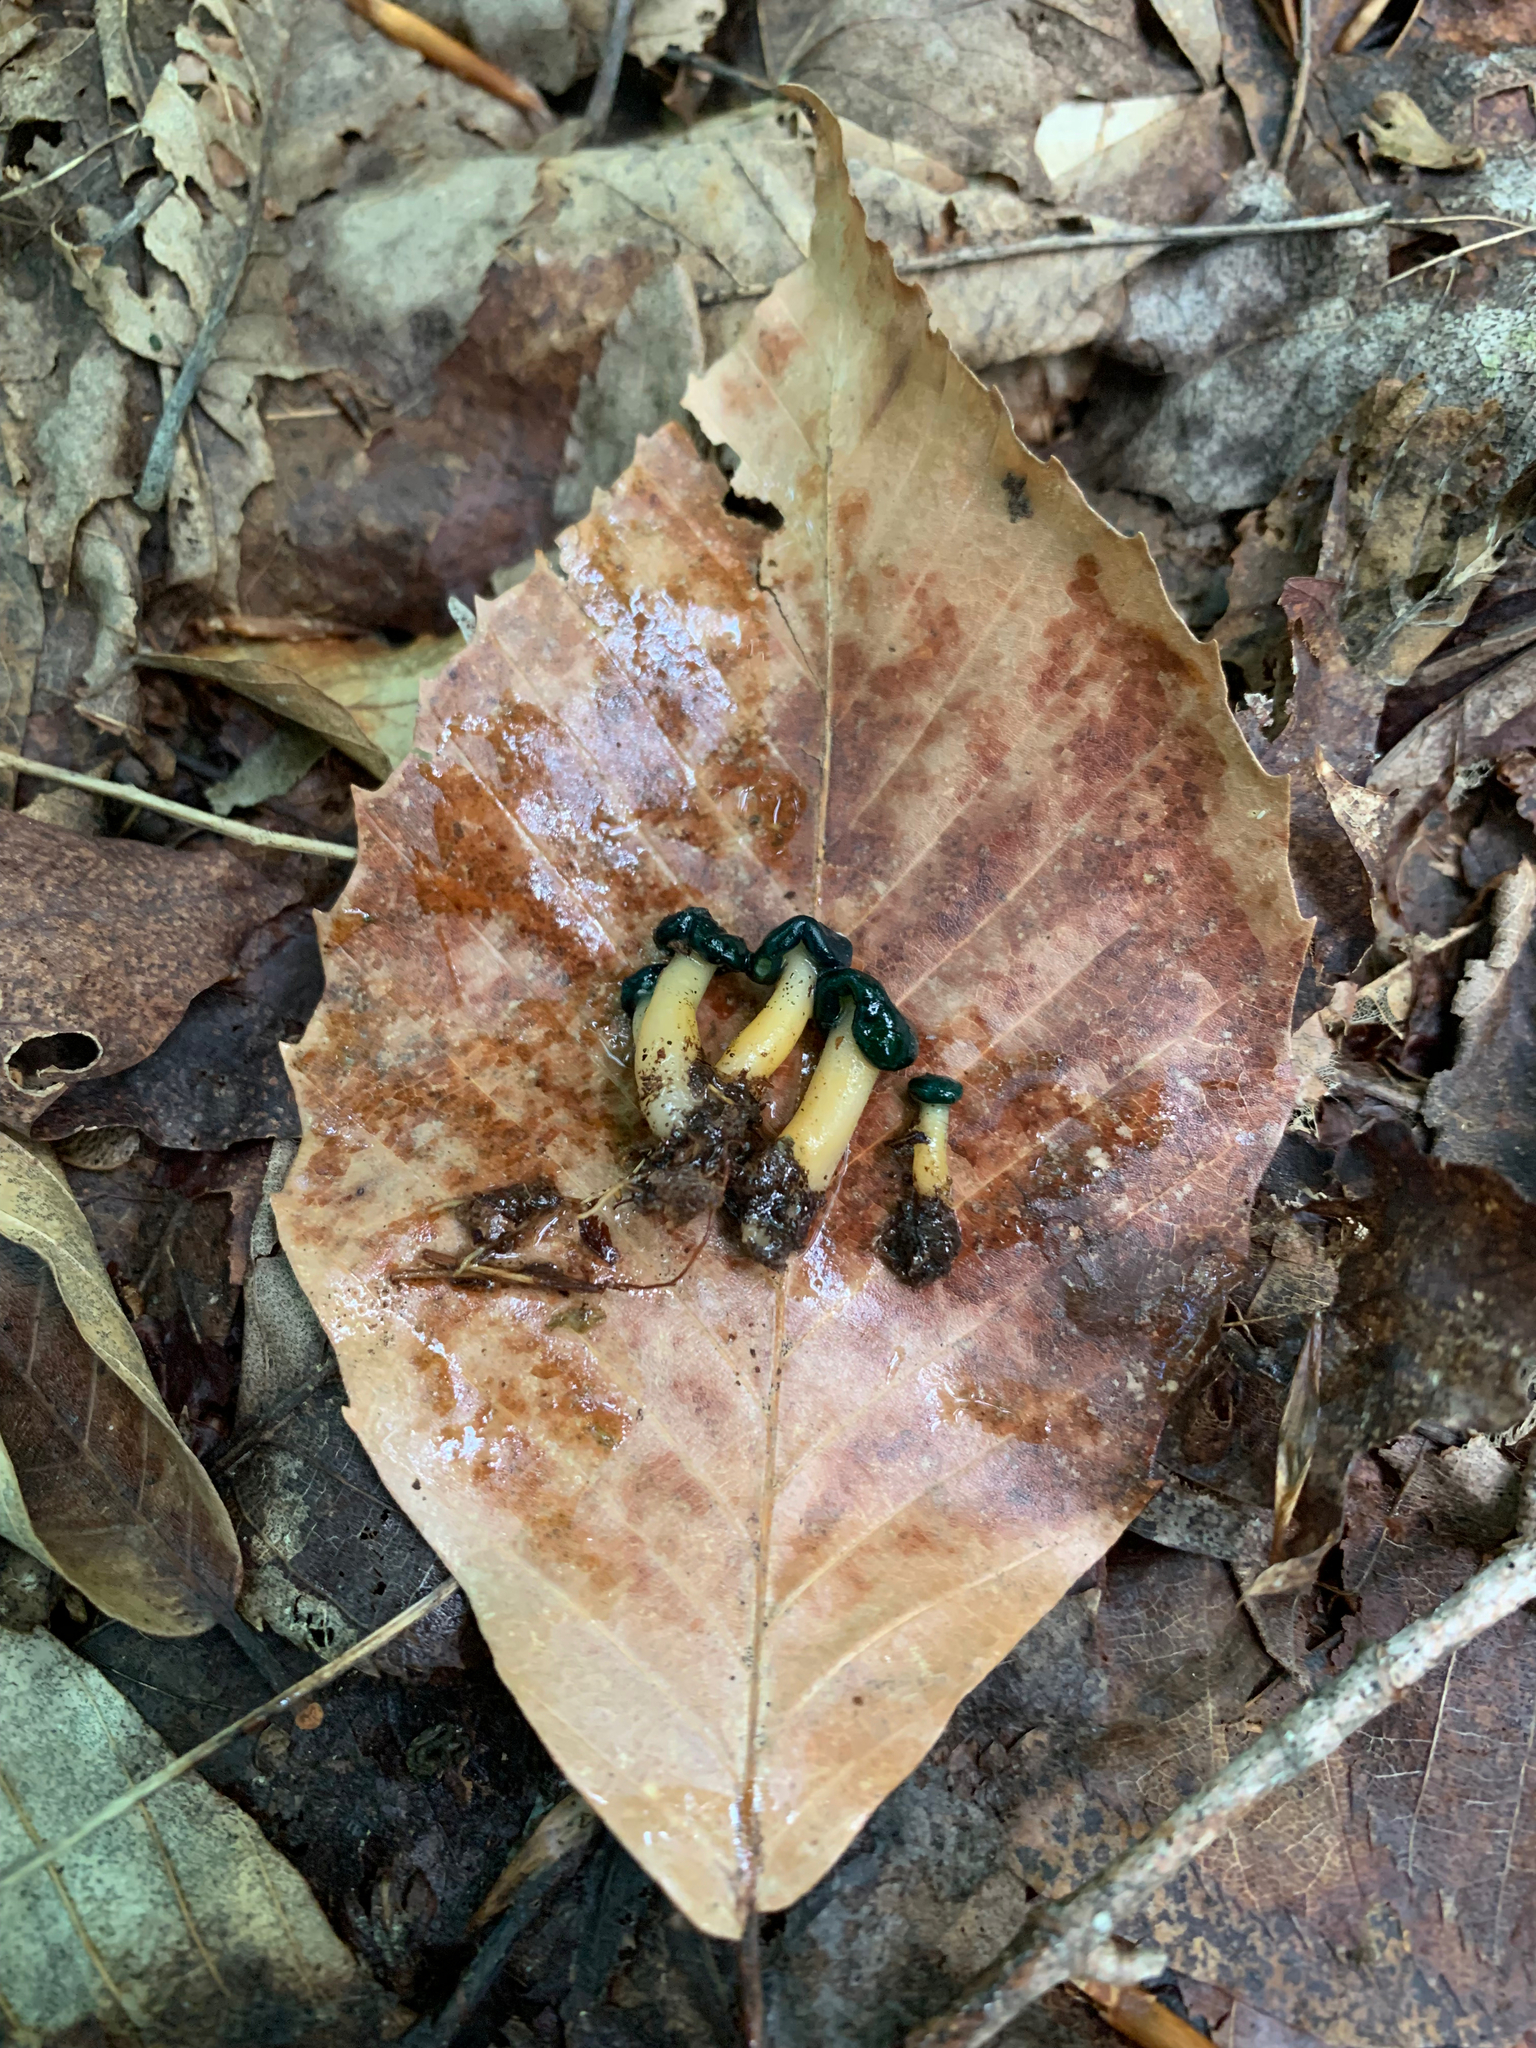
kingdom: Fungi
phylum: Ascomycota
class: Leotiomycetes
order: Leotiales
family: Leotiaceae
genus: Leotia
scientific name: Leotia lubrica
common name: Jellybaby
